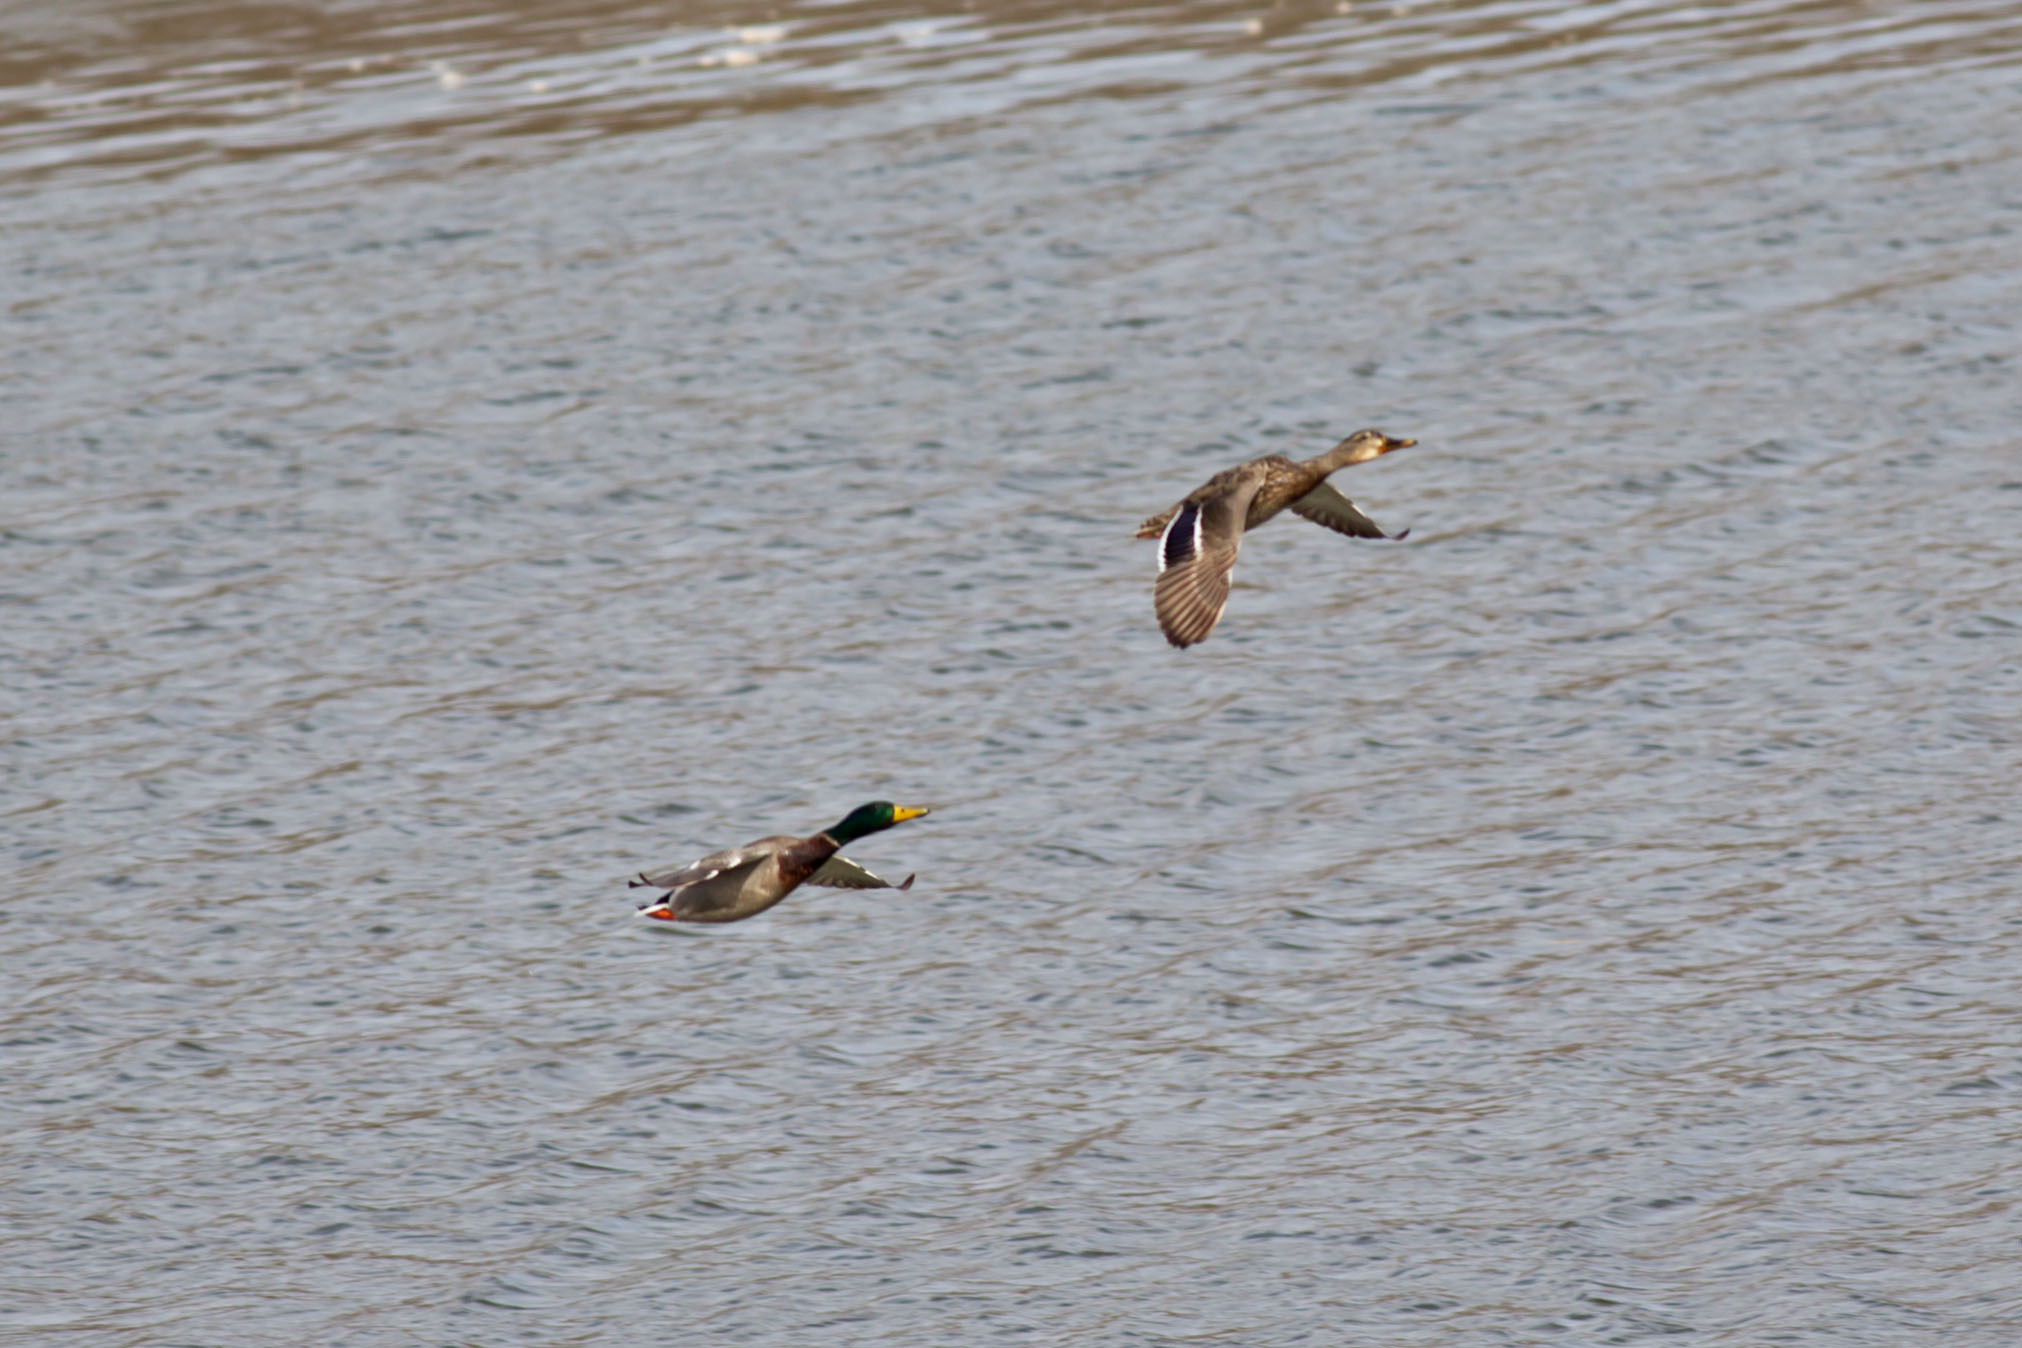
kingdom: Animalia
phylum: Chordata
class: Aves
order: Anseriformes
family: Anatidae
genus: Anas
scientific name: Anas platyrhynchos
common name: Mallard
